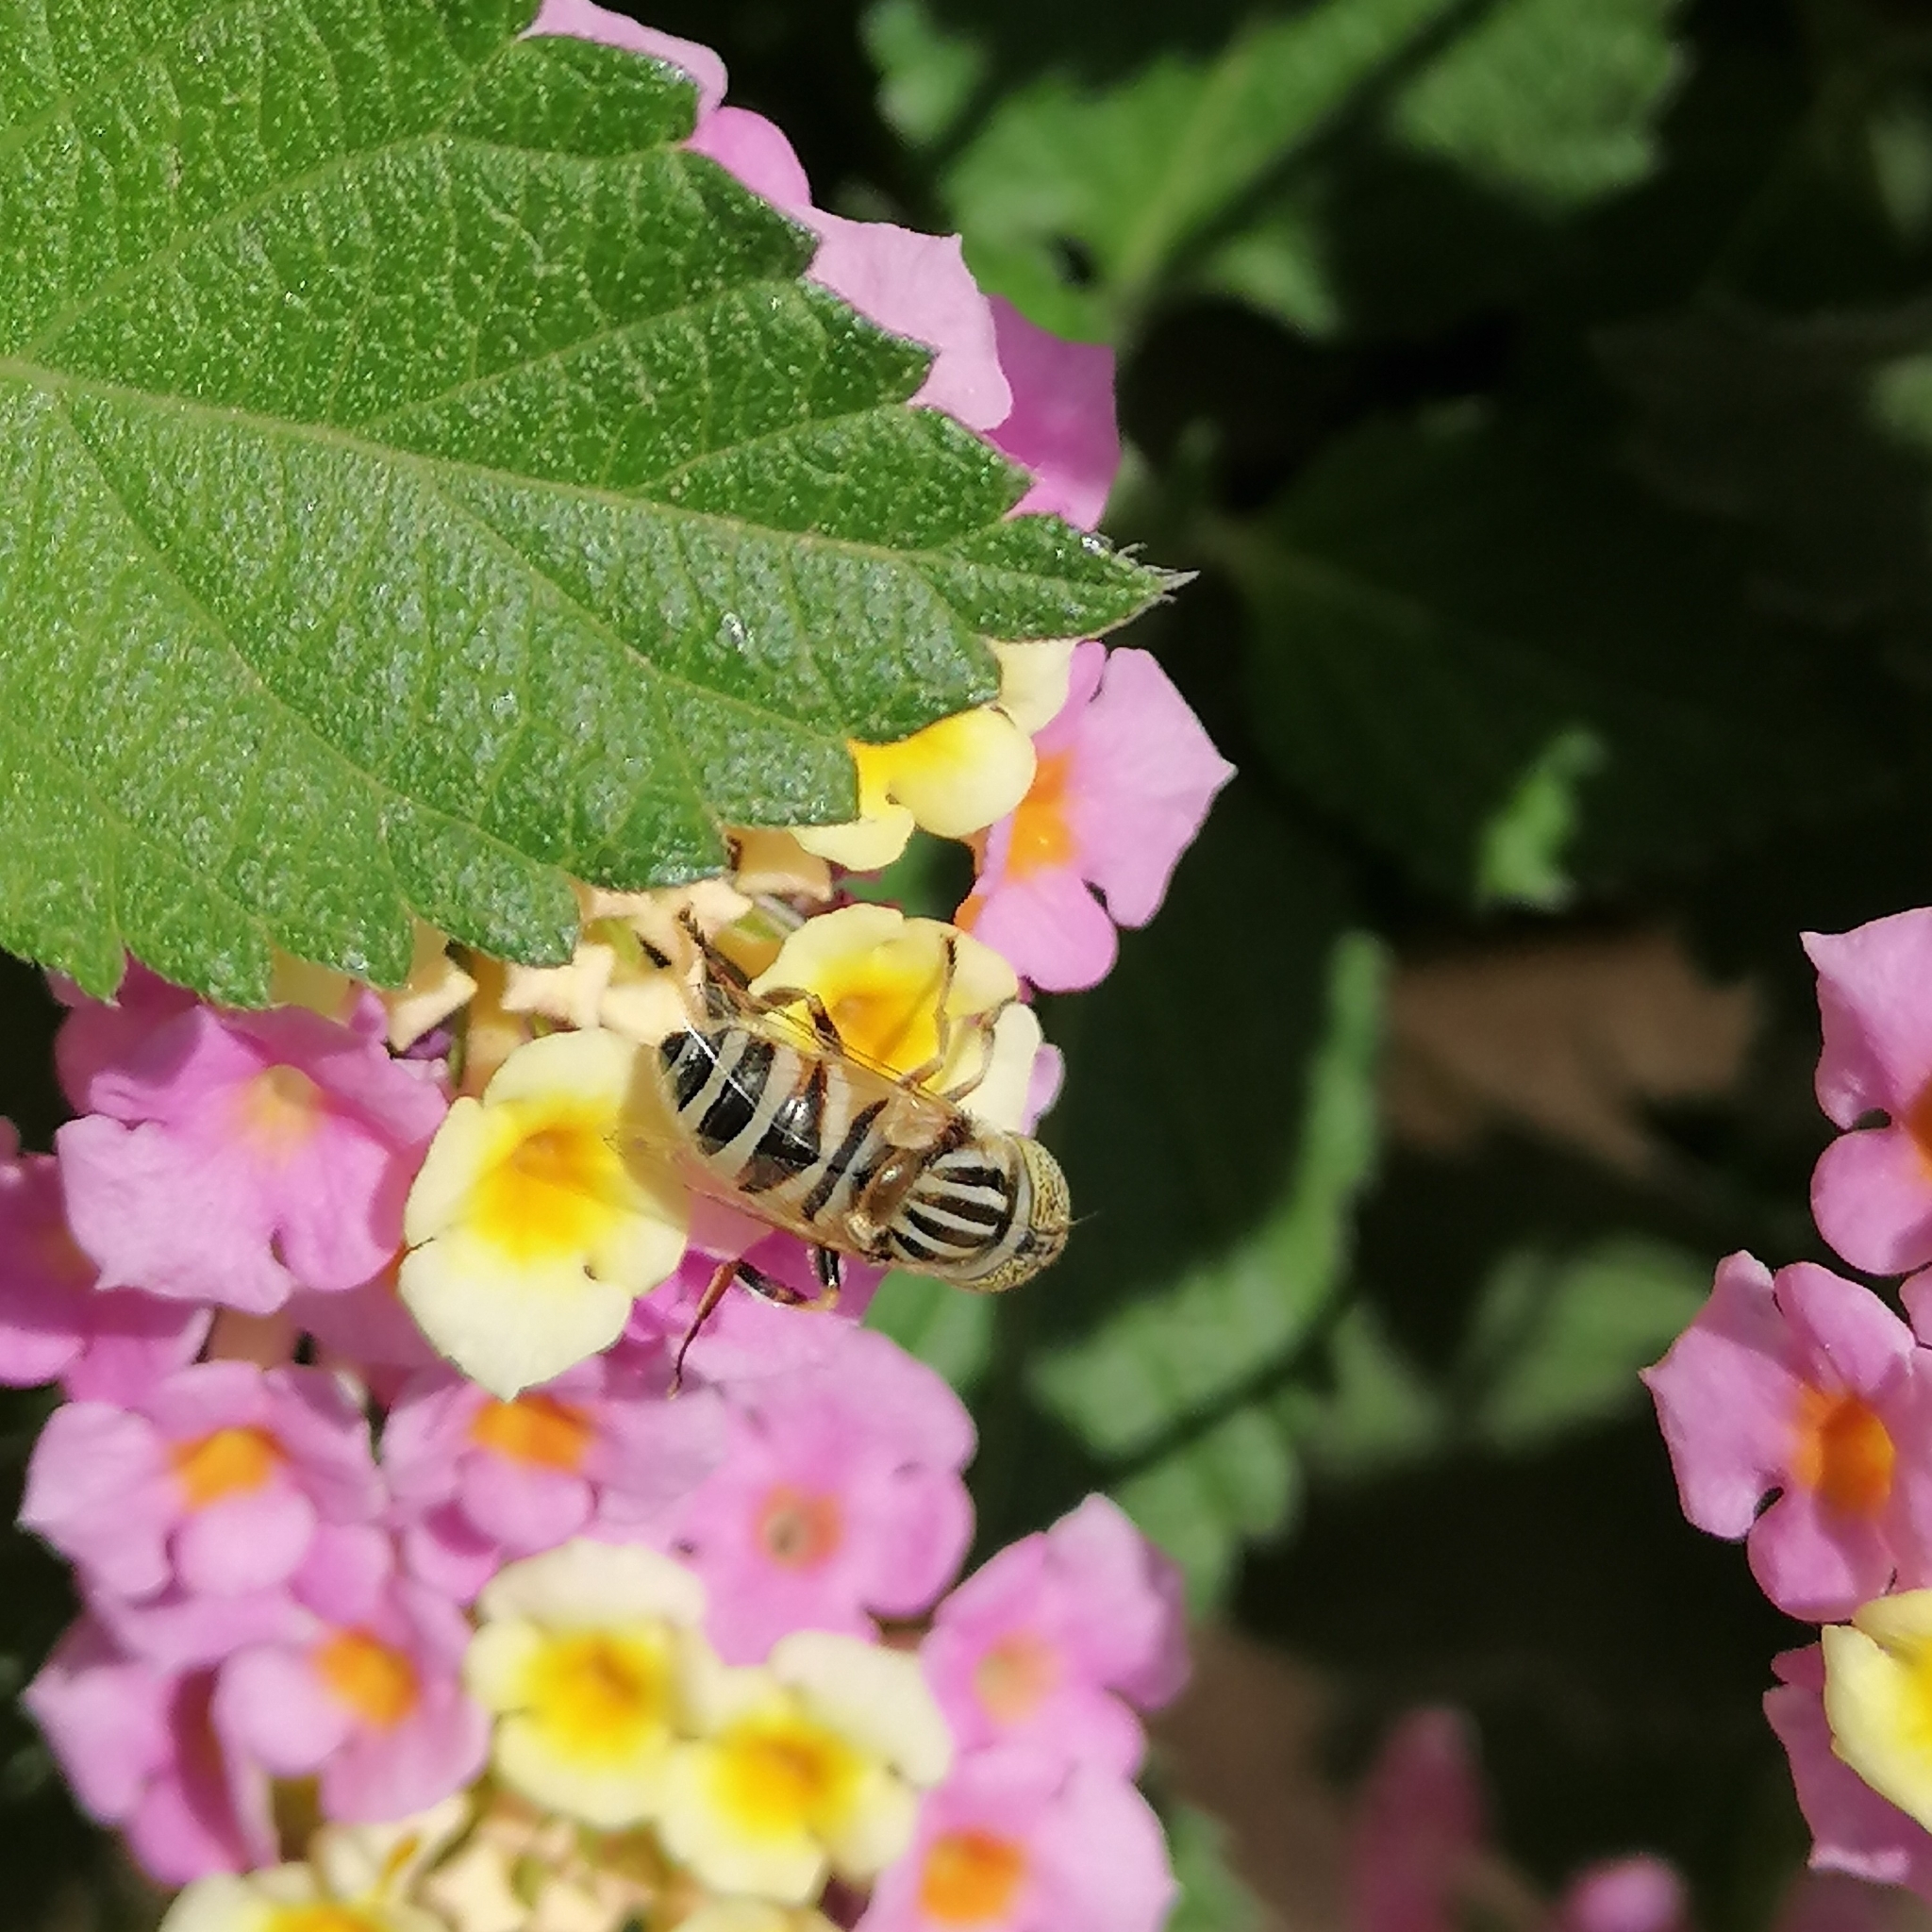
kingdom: Animalia
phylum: Arthropoda
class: Insecta
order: Diptera
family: Syrphidae
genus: Eristalinus
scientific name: Eristalinus tabanoides
